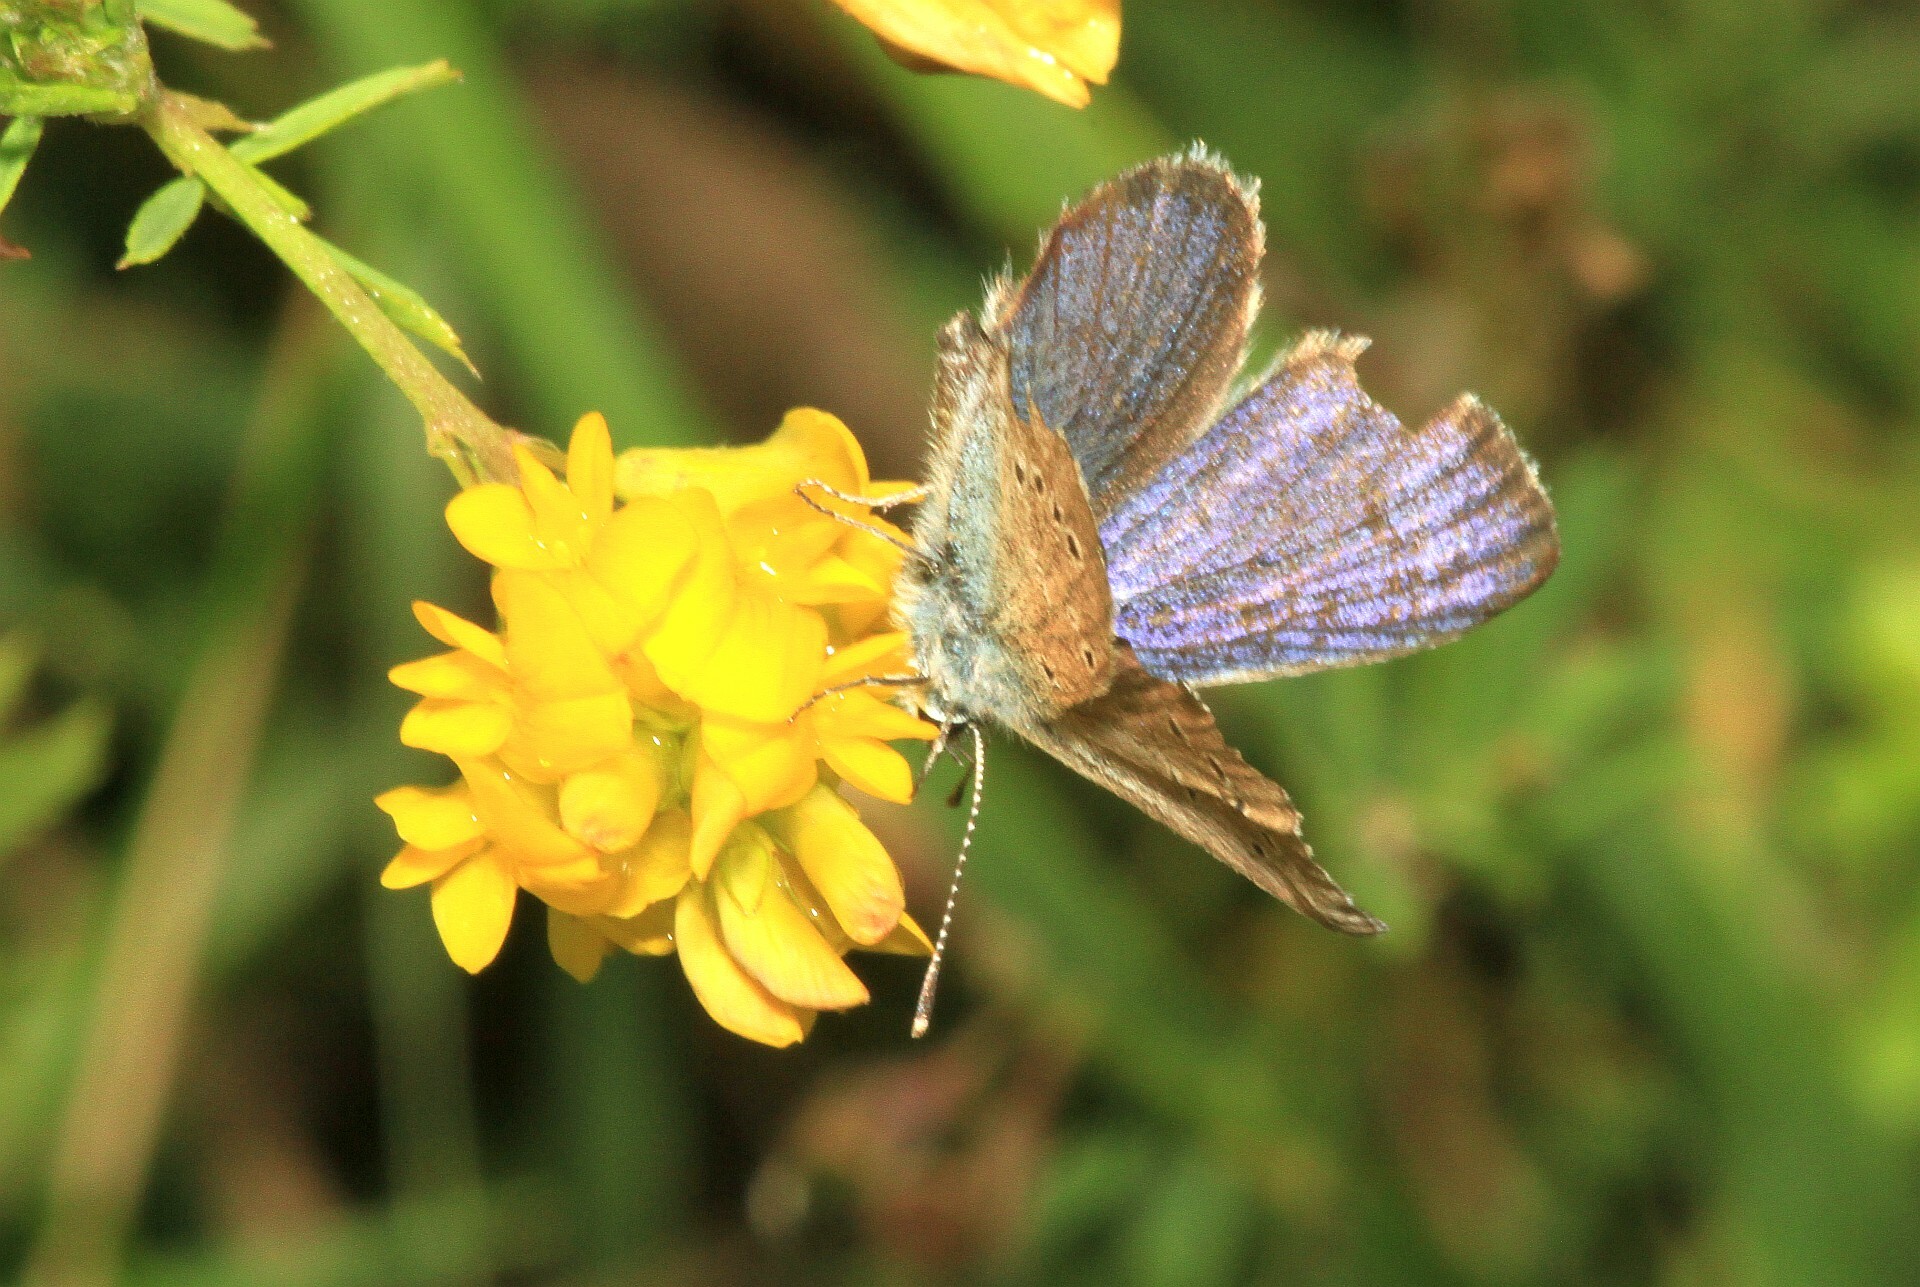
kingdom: Animalia
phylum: Arthropoda
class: Insecta
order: Lepidoptera
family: Lycaenidae
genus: Cyaniris
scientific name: Cyaniris semiargus
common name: Mazarine blue
